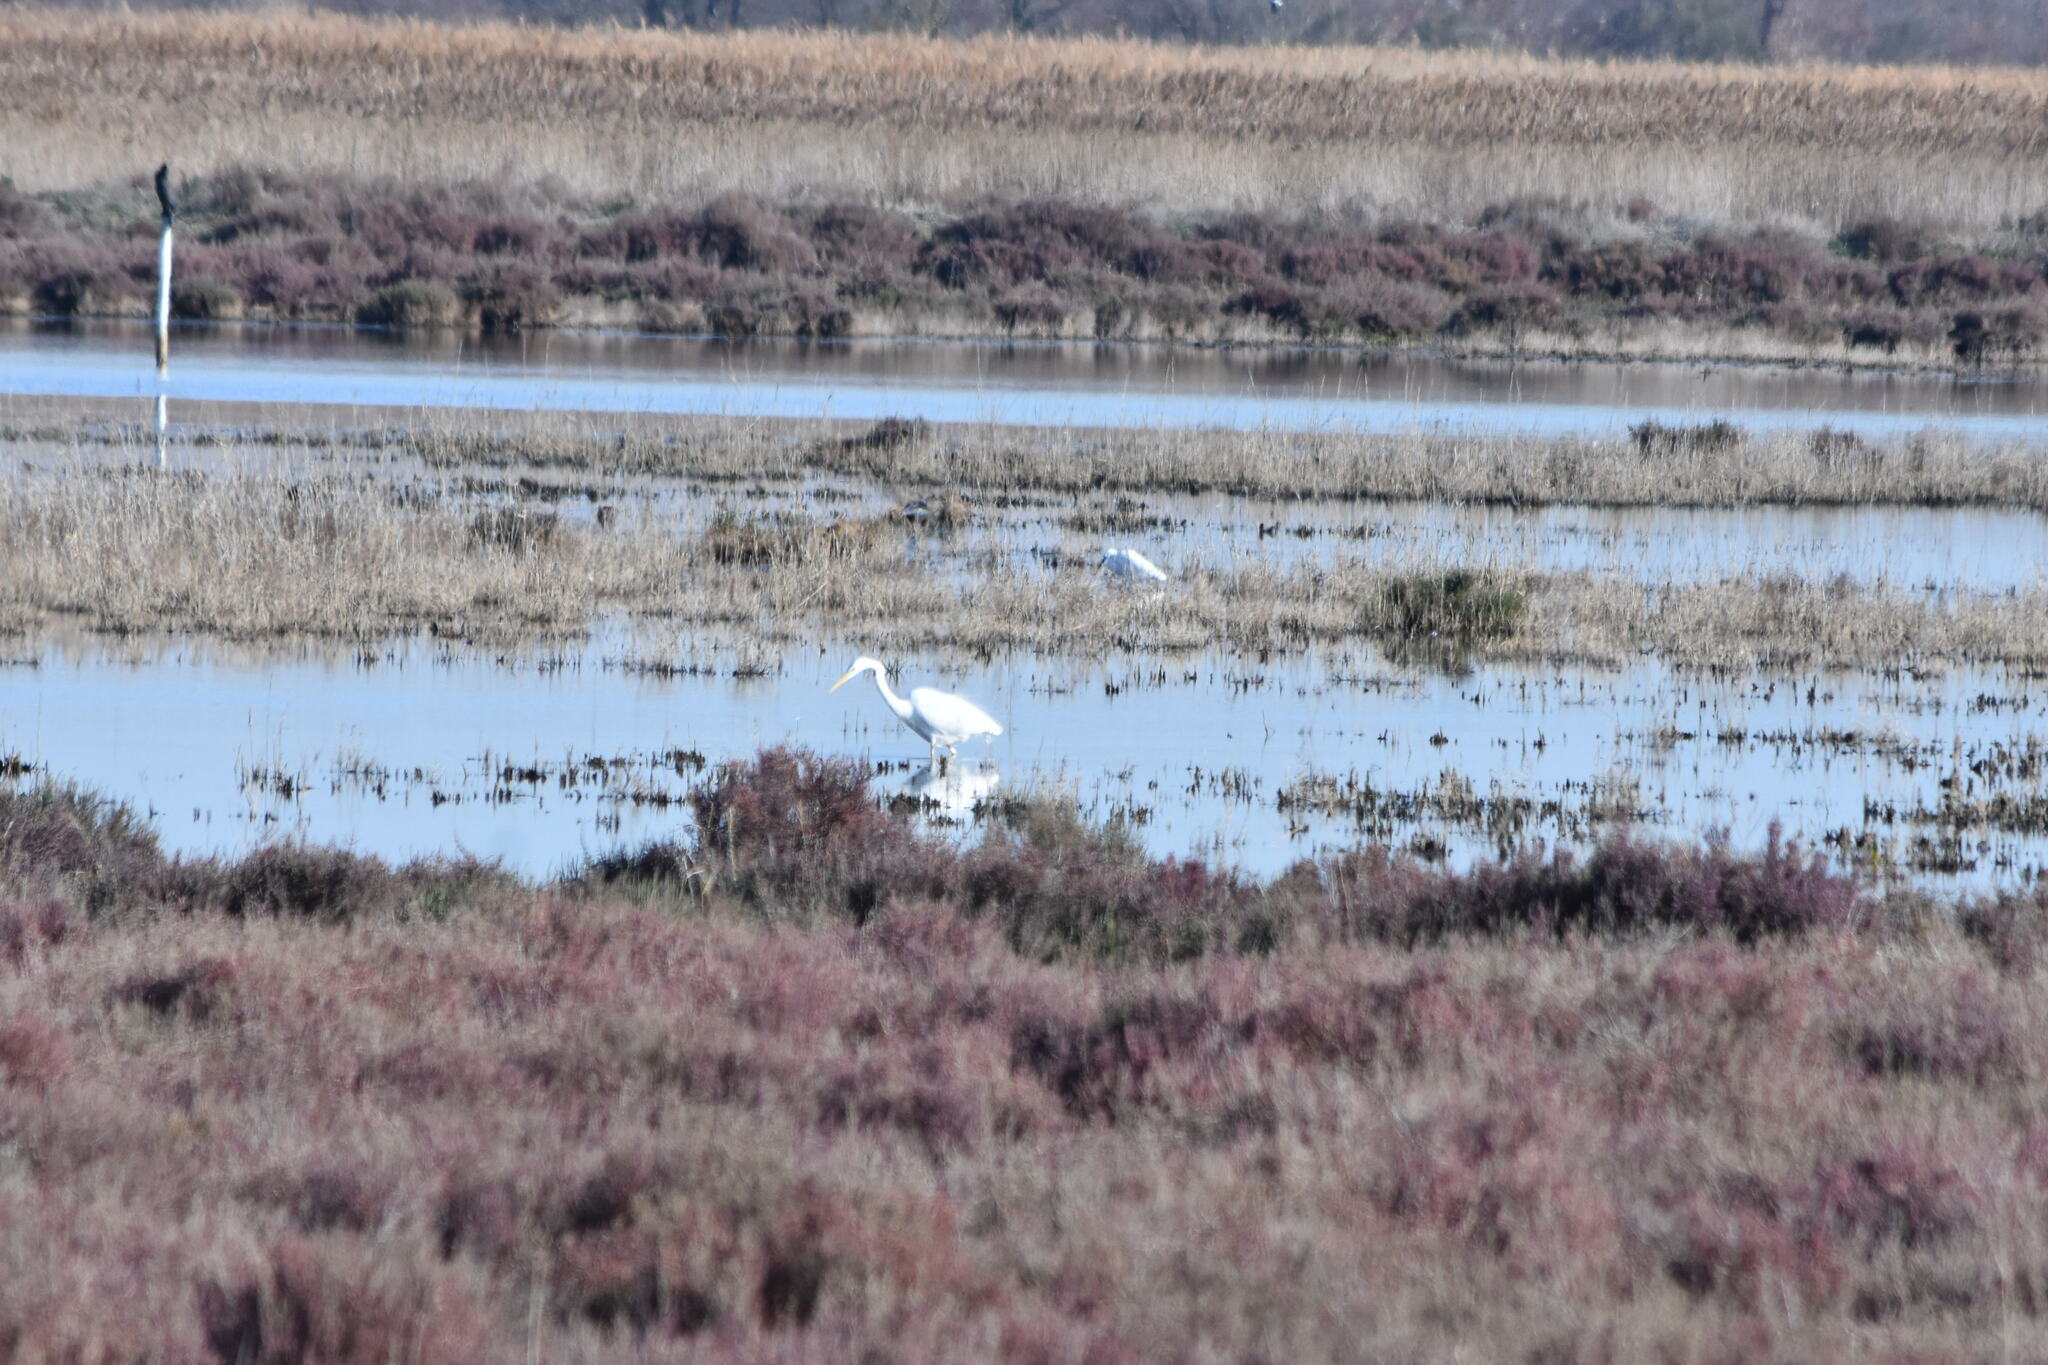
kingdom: Animalia
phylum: Chordata
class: Aves
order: Pelecaniformes
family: Ardeidae
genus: Ardea
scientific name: Ardea alba
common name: Great egret
